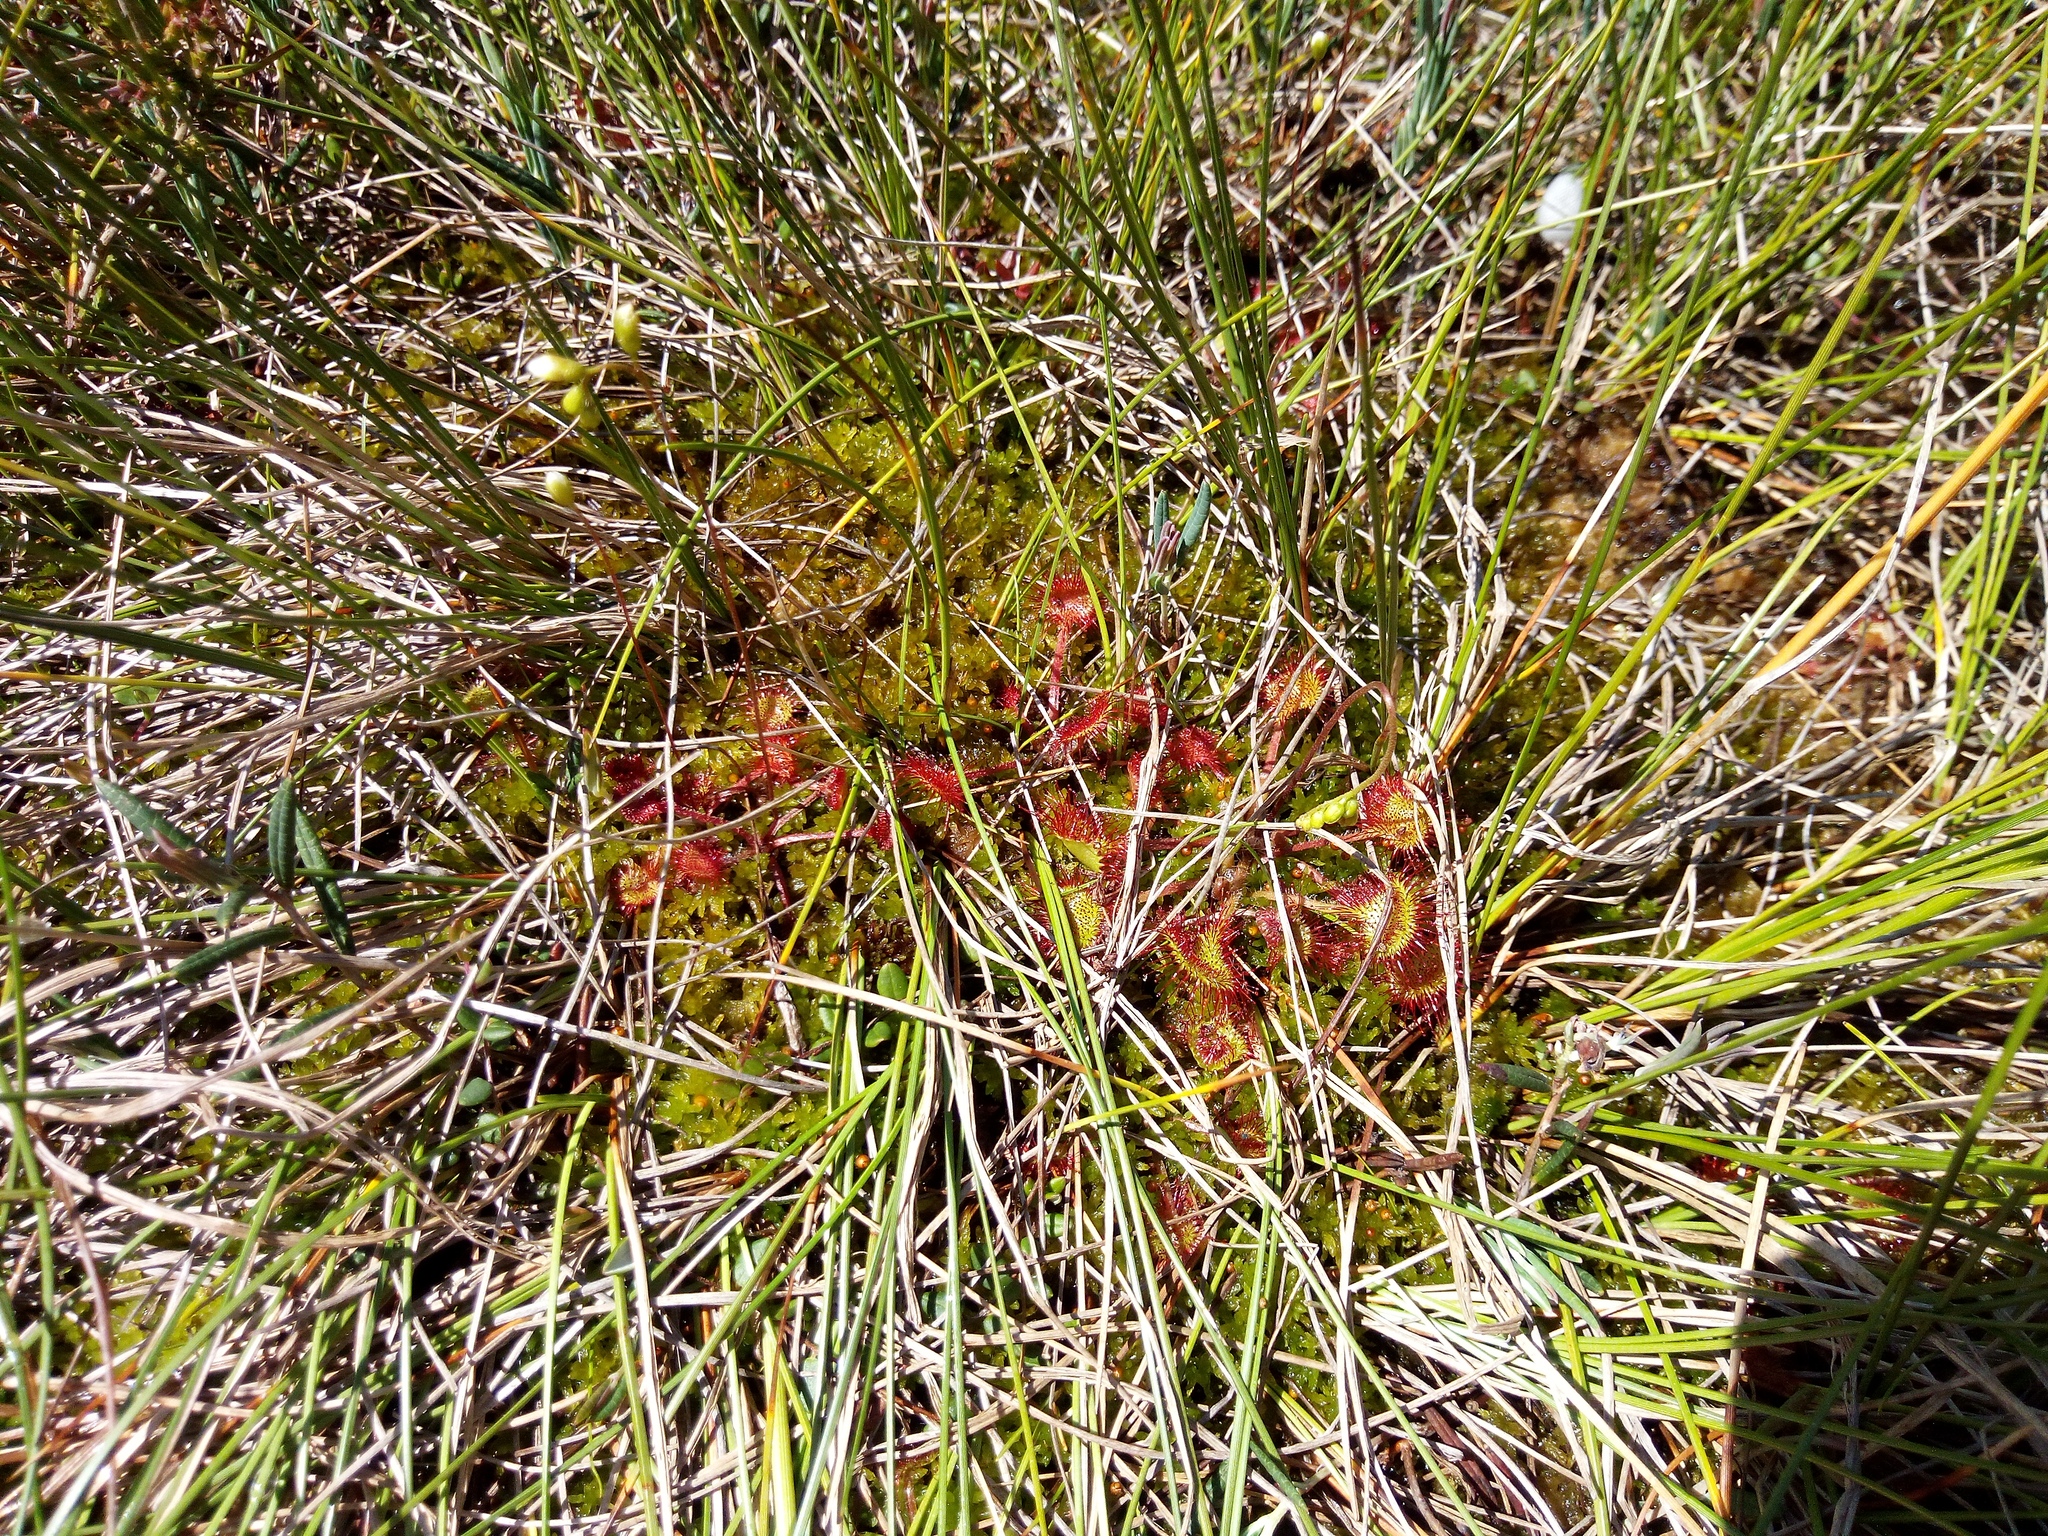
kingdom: Plantae
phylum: Tracheophyta
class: Magnoliopsida
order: Caryophyllales
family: Droseraceae
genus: Drosera
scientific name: Drosera rotundifolia
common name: Round-leaved sundew
